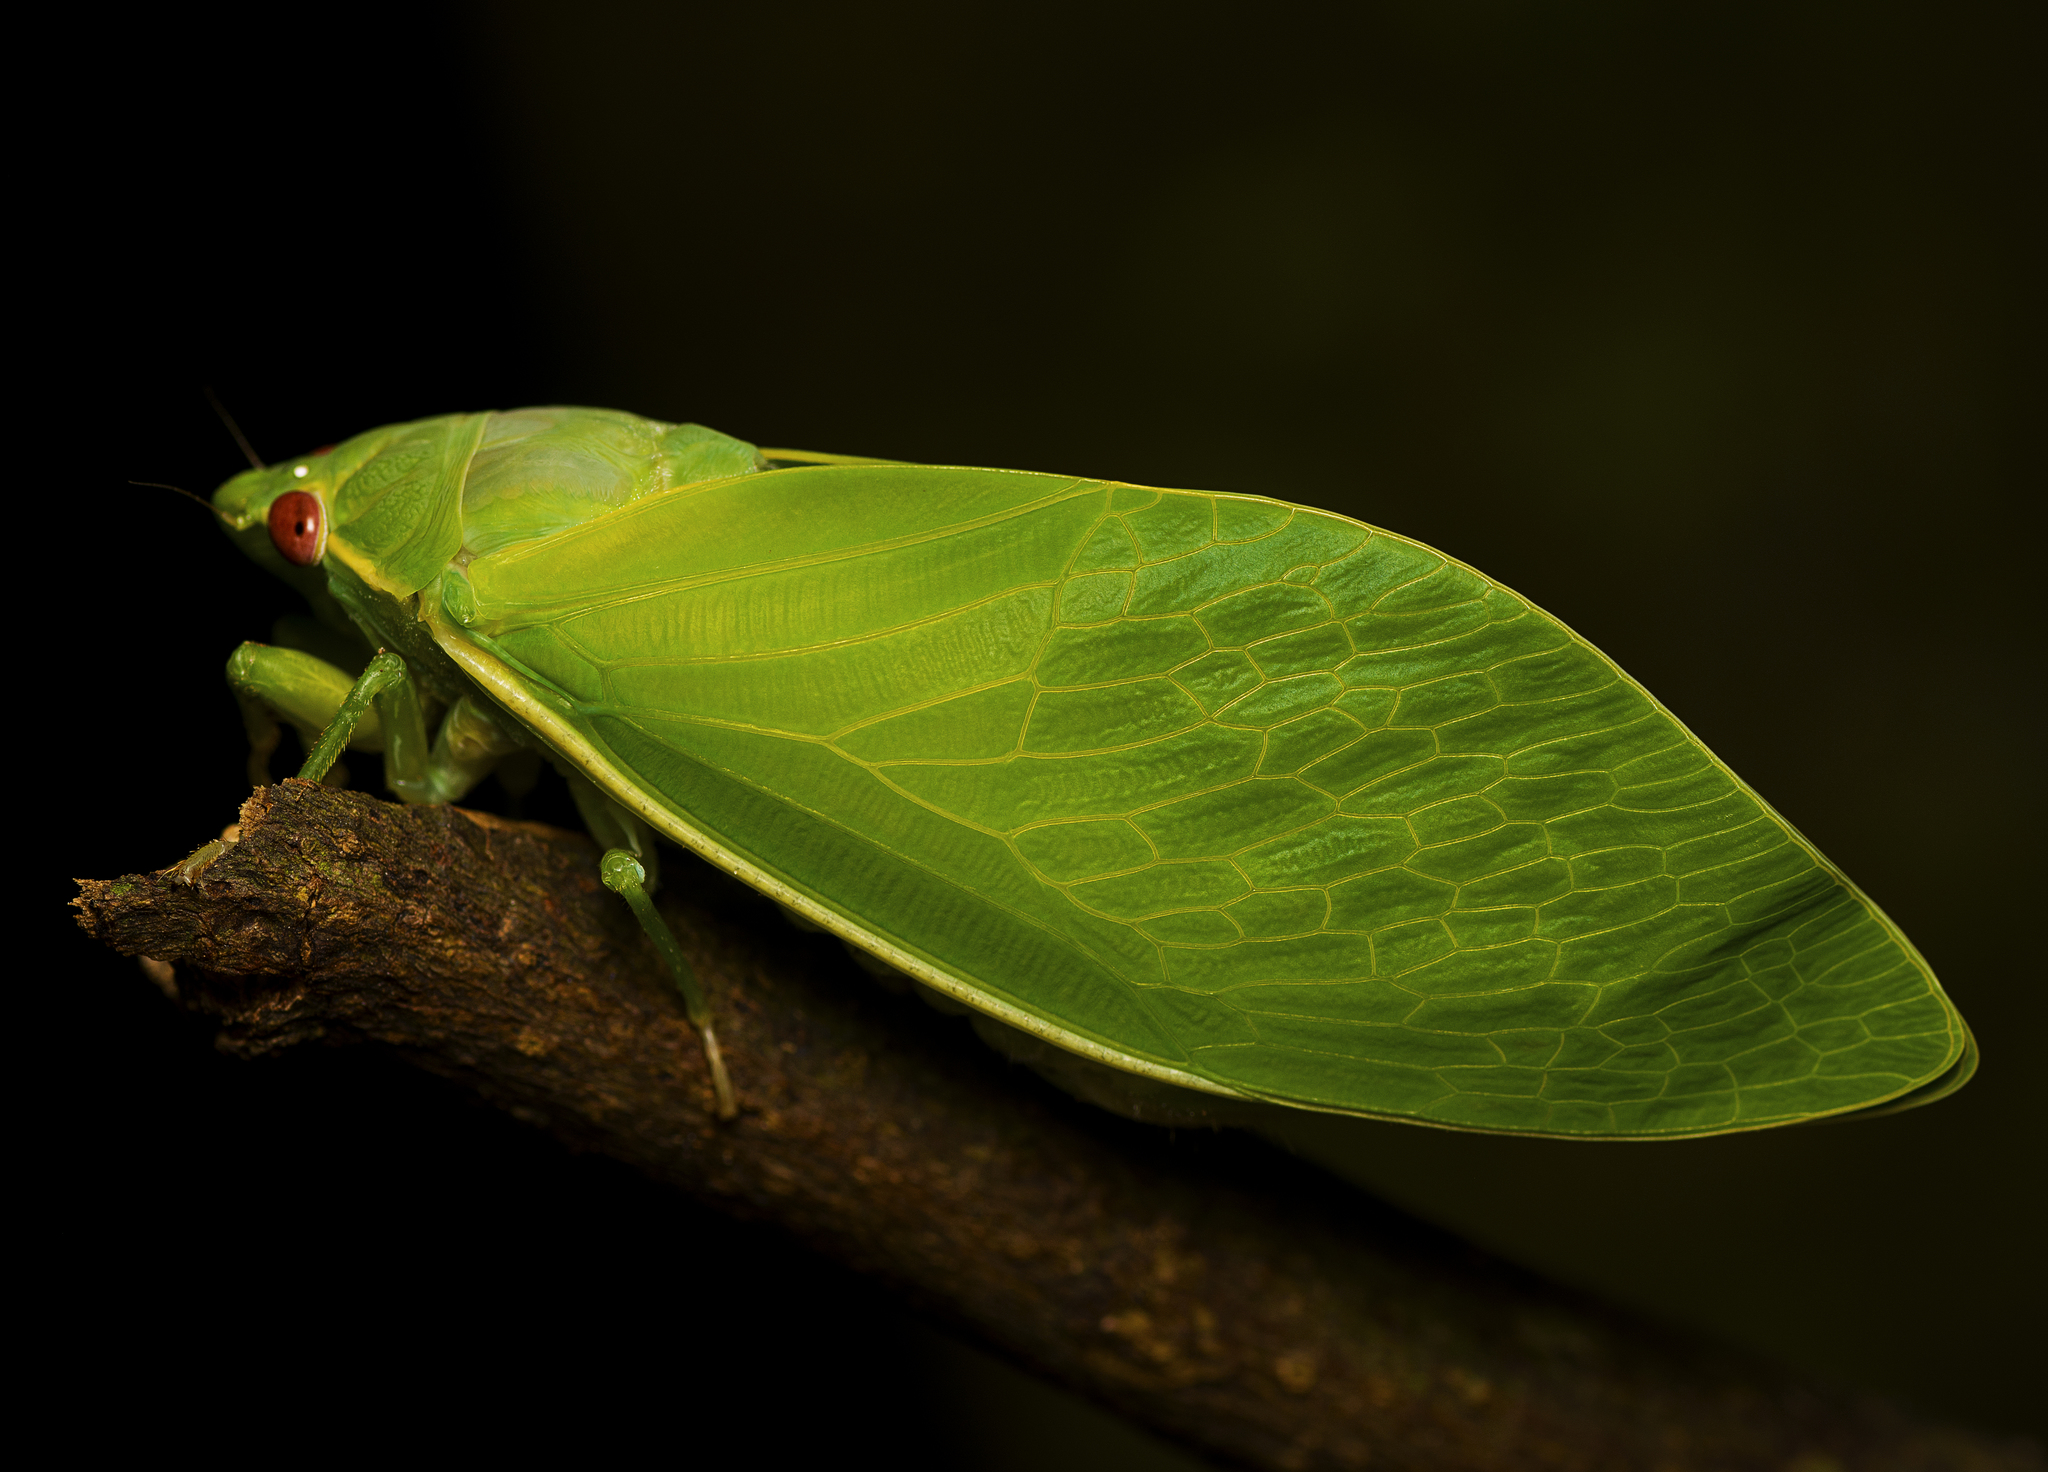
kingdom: Animalia
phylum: Arthropoda
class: Insecta
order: Hemiptera
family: Cicadidae
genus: Cystopsaltria
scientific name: Cystopsaltria immaculata
